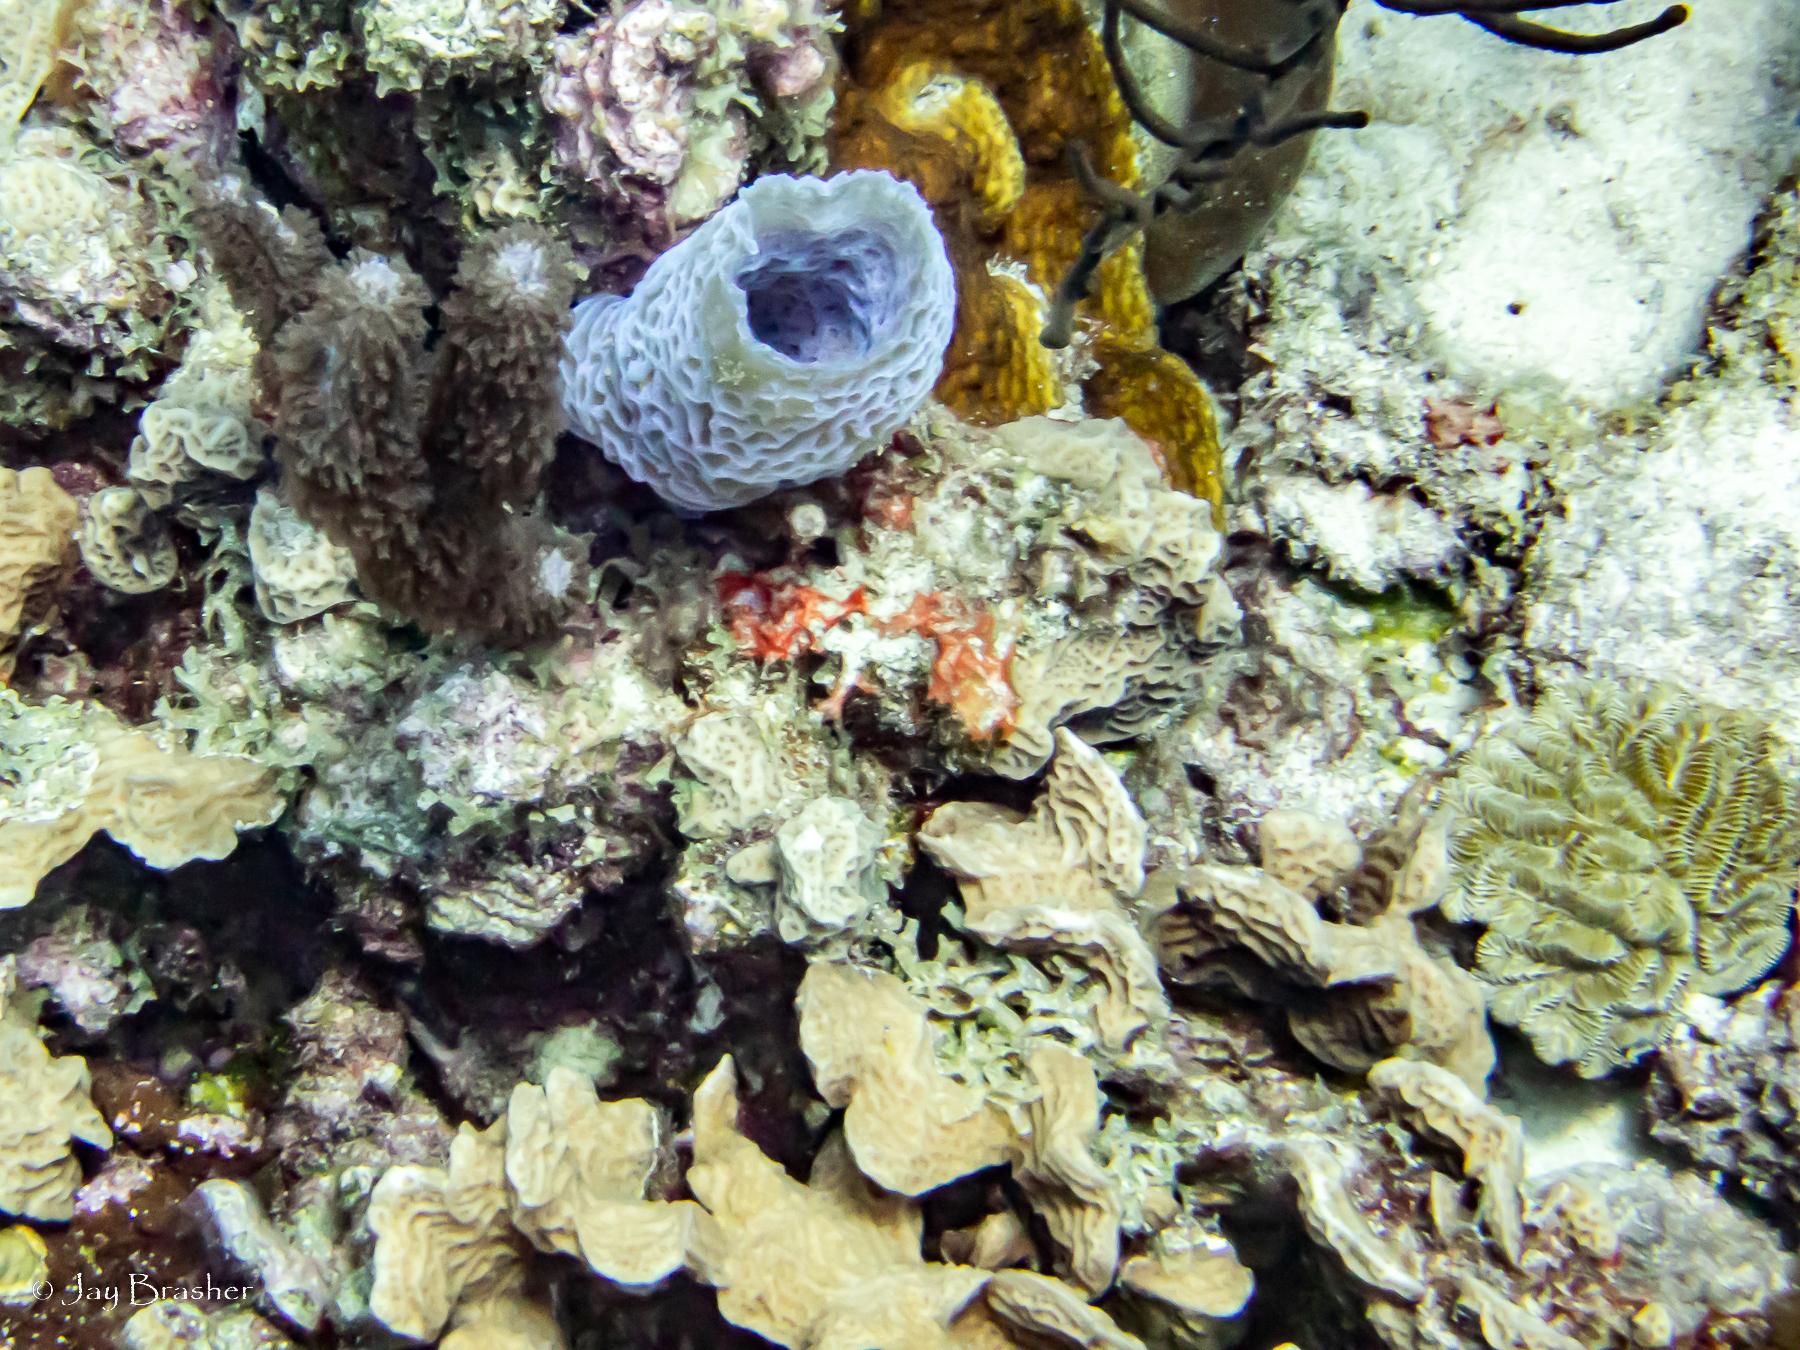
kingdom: Animalia
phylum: Porifera
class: Demospongiae
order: Haplosclerida
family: Callyspongiidae
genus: Callyspongia
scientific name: Callyspongia plicifera
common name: Azure vase sponge
